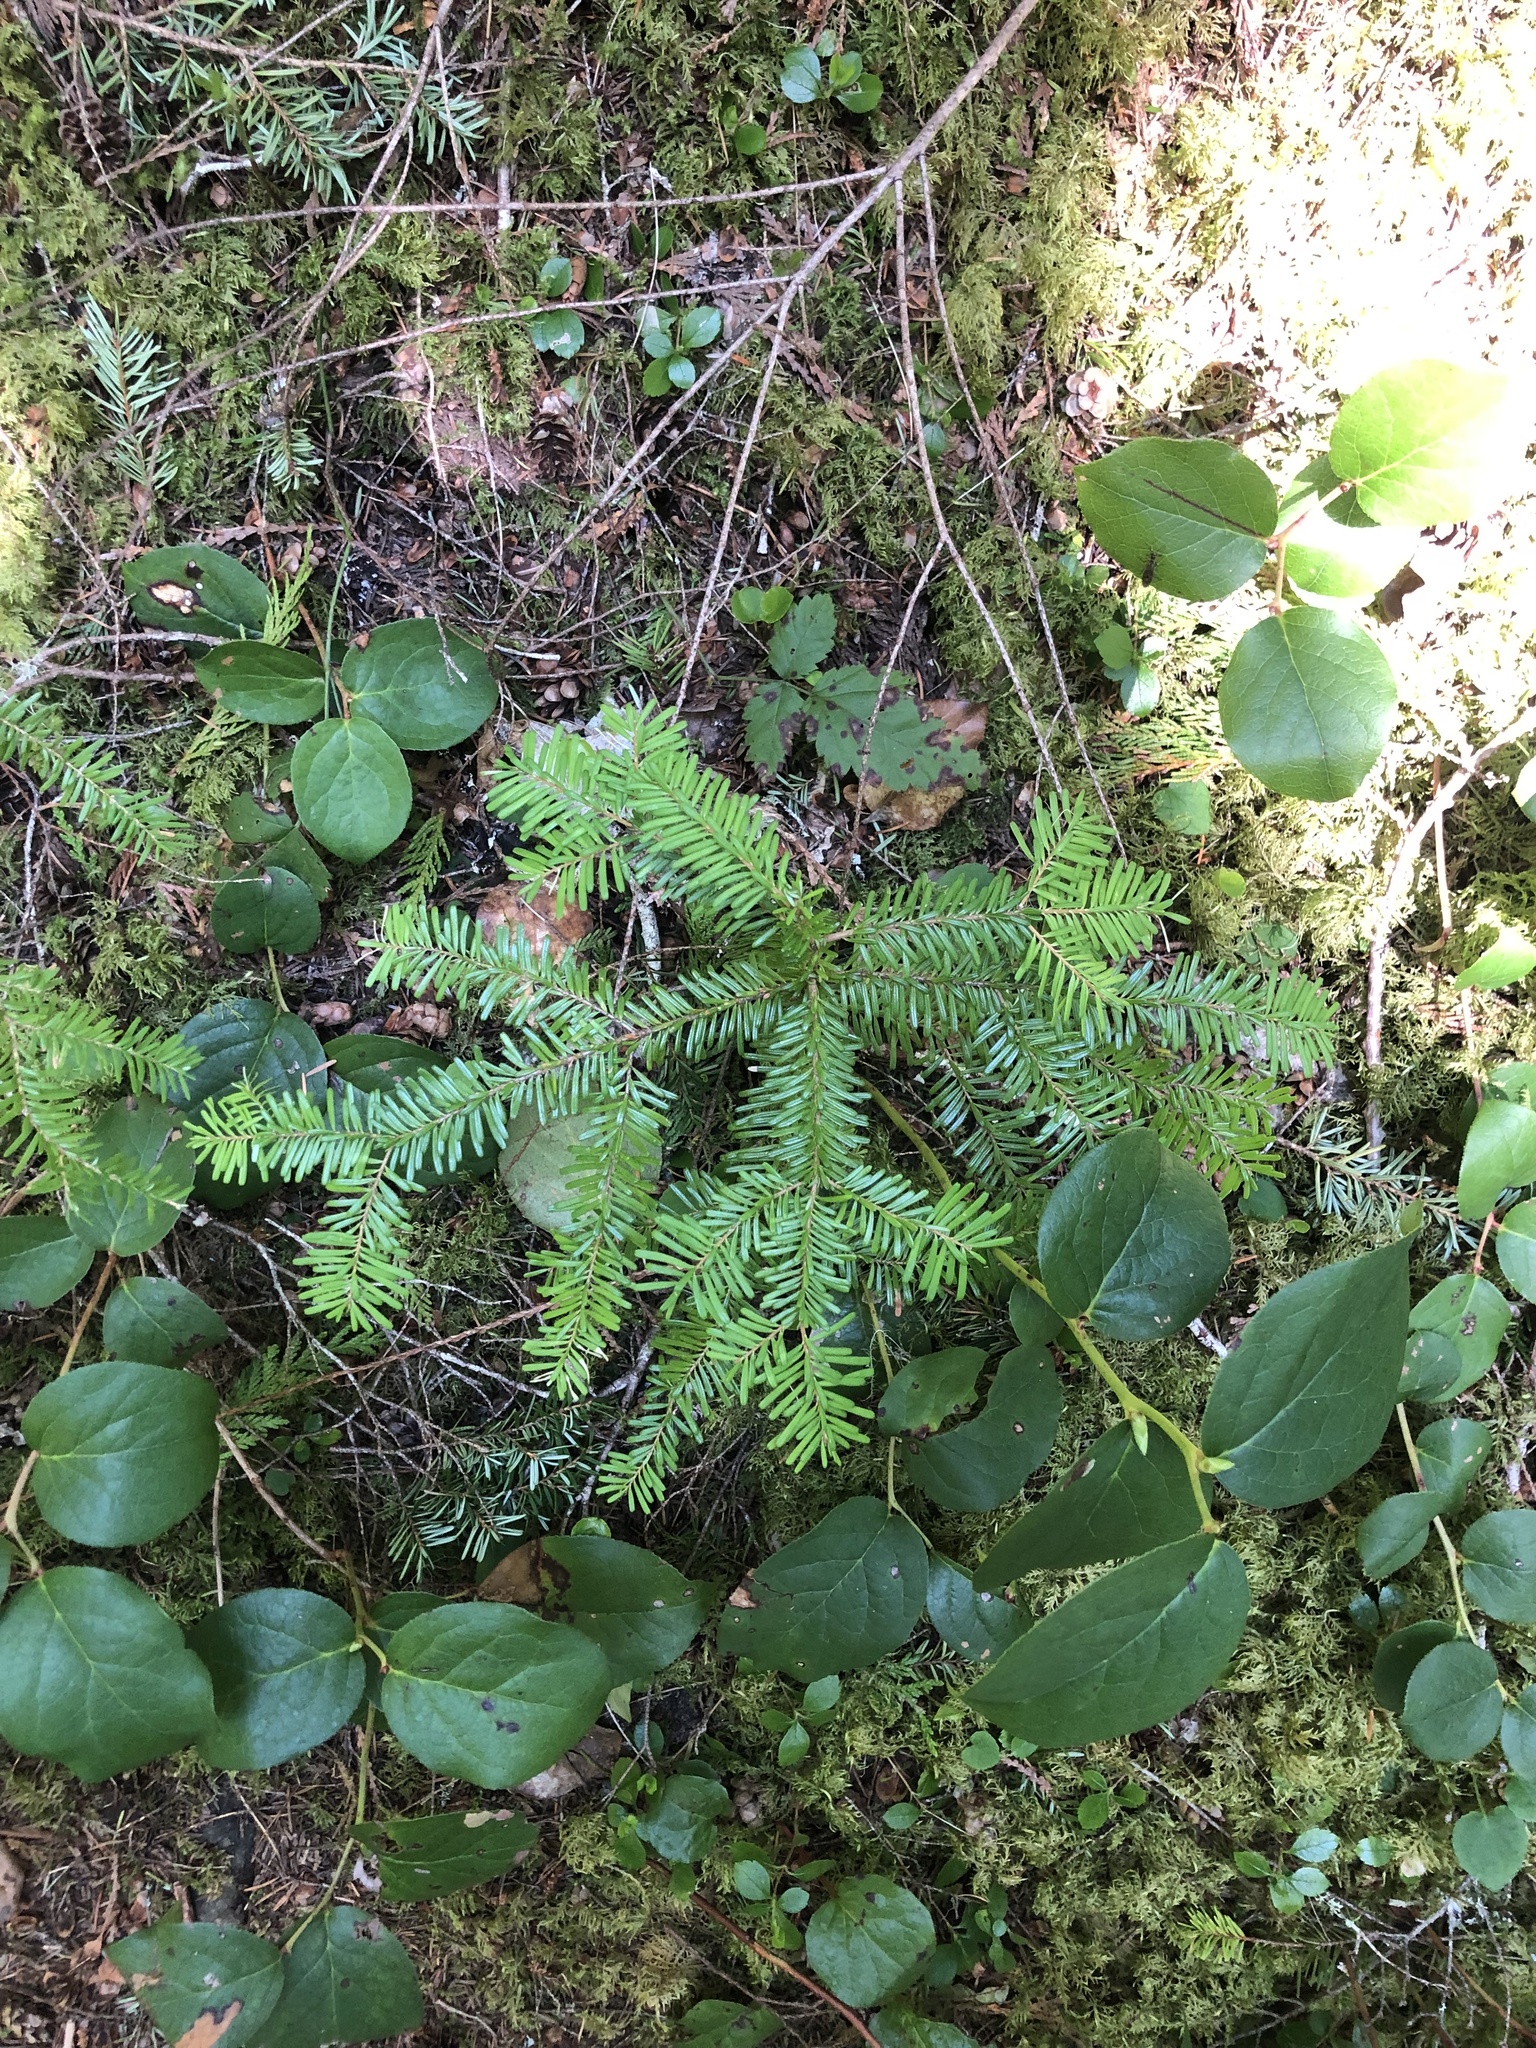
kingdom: Plantae
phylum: Tracheophyta
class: Pinopsida
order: Pinales
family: Pinaceae
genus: Abies
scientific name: Abies amabilis
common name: Pacific silver fir
